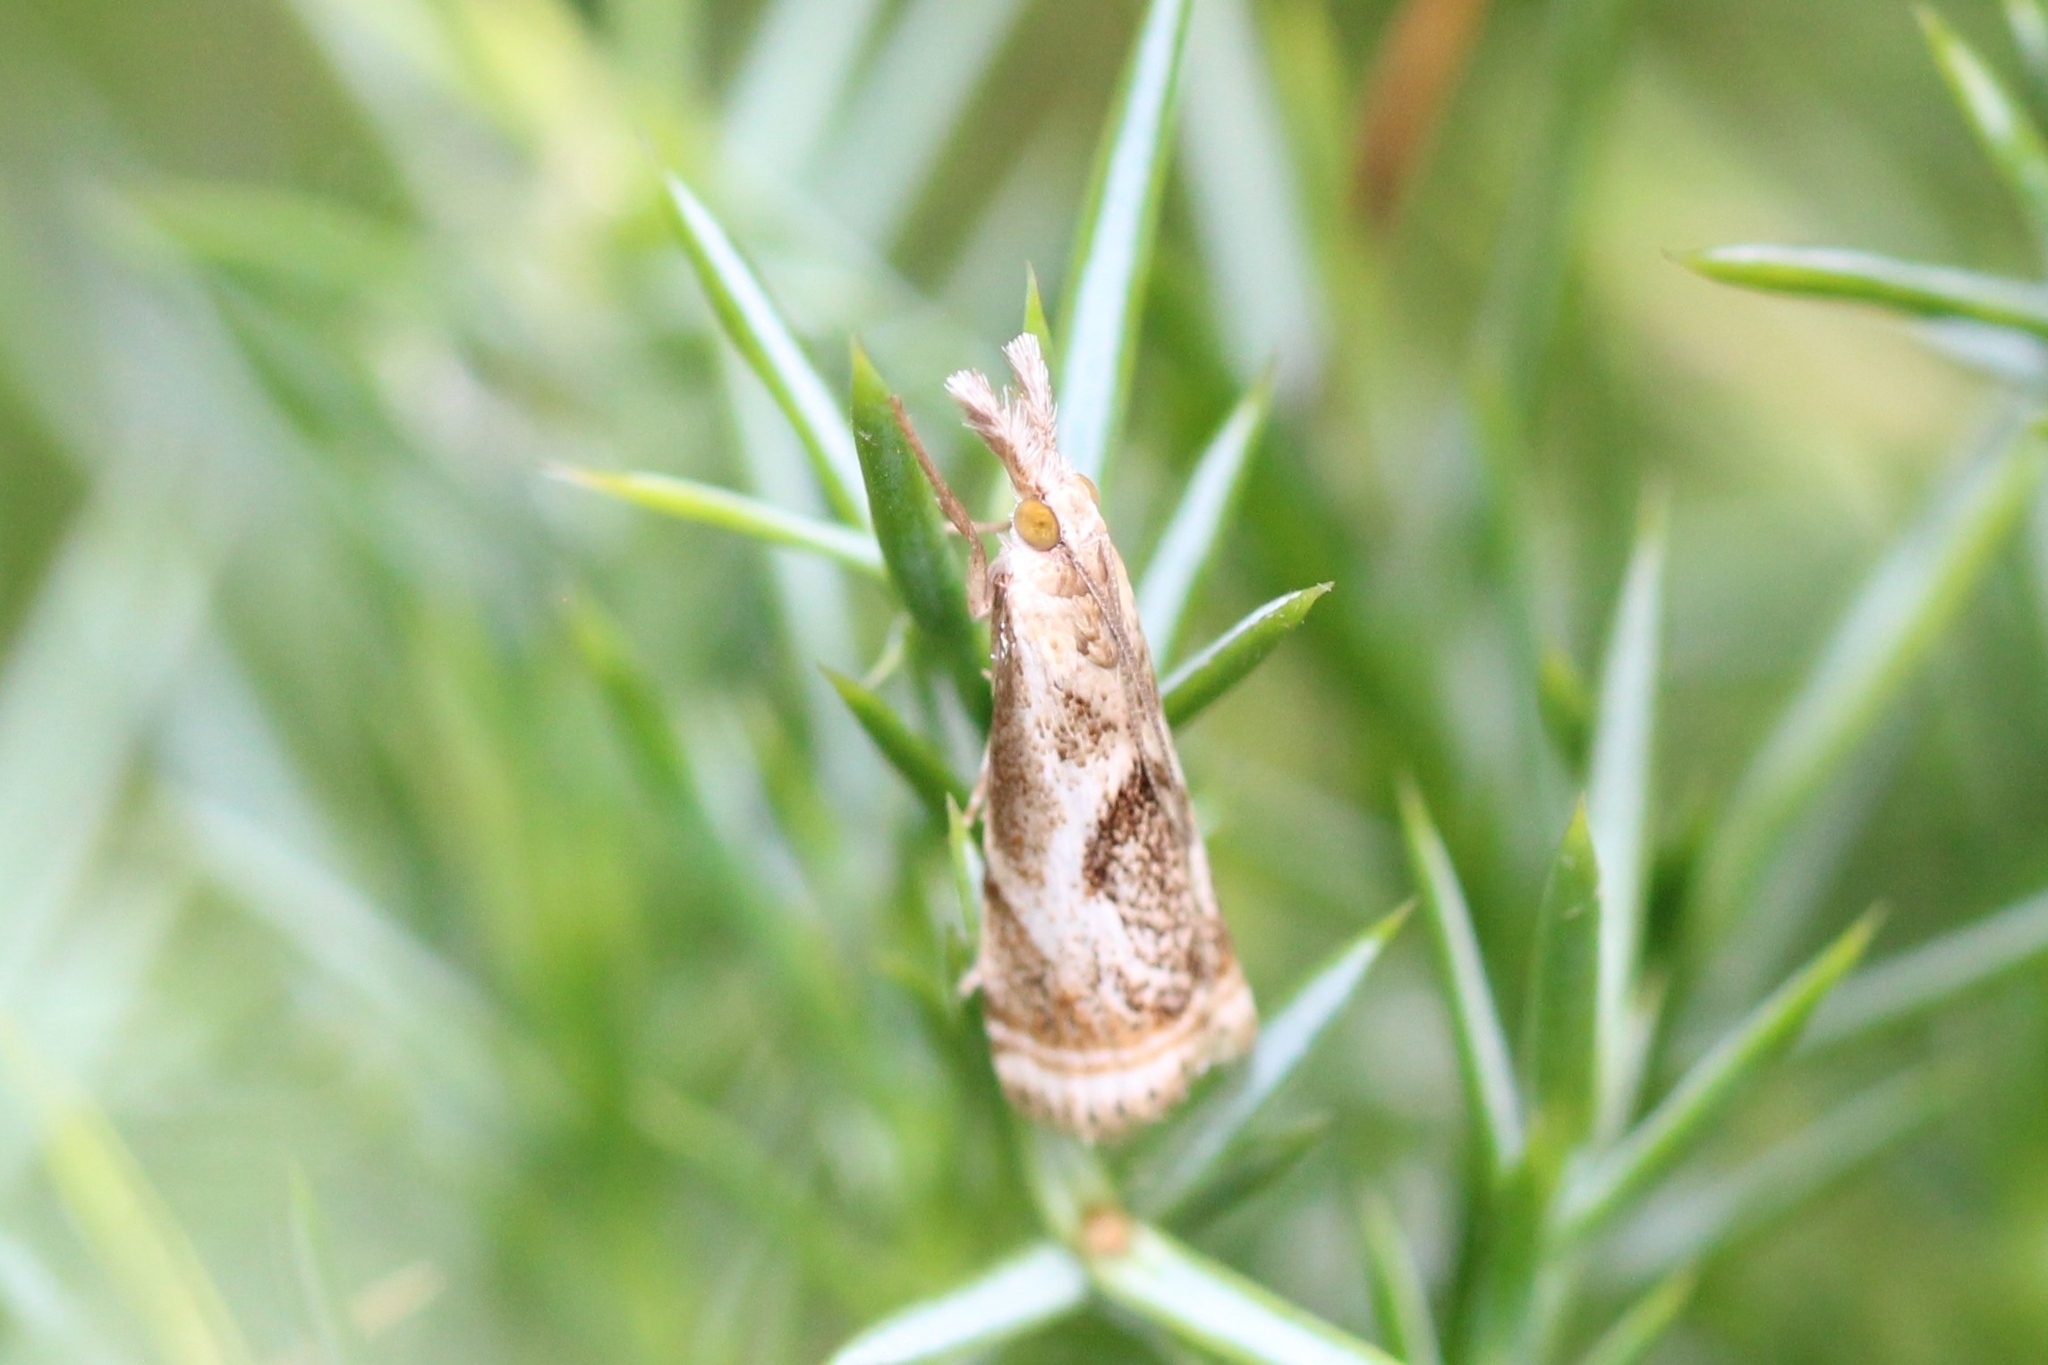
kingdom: Animalia
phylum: Arthropoda
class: Insecta
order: Lepidoptera
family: Crambidae
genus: Microcrambus
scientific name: Microcrambus elegans
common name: Elegant grass-veneer
